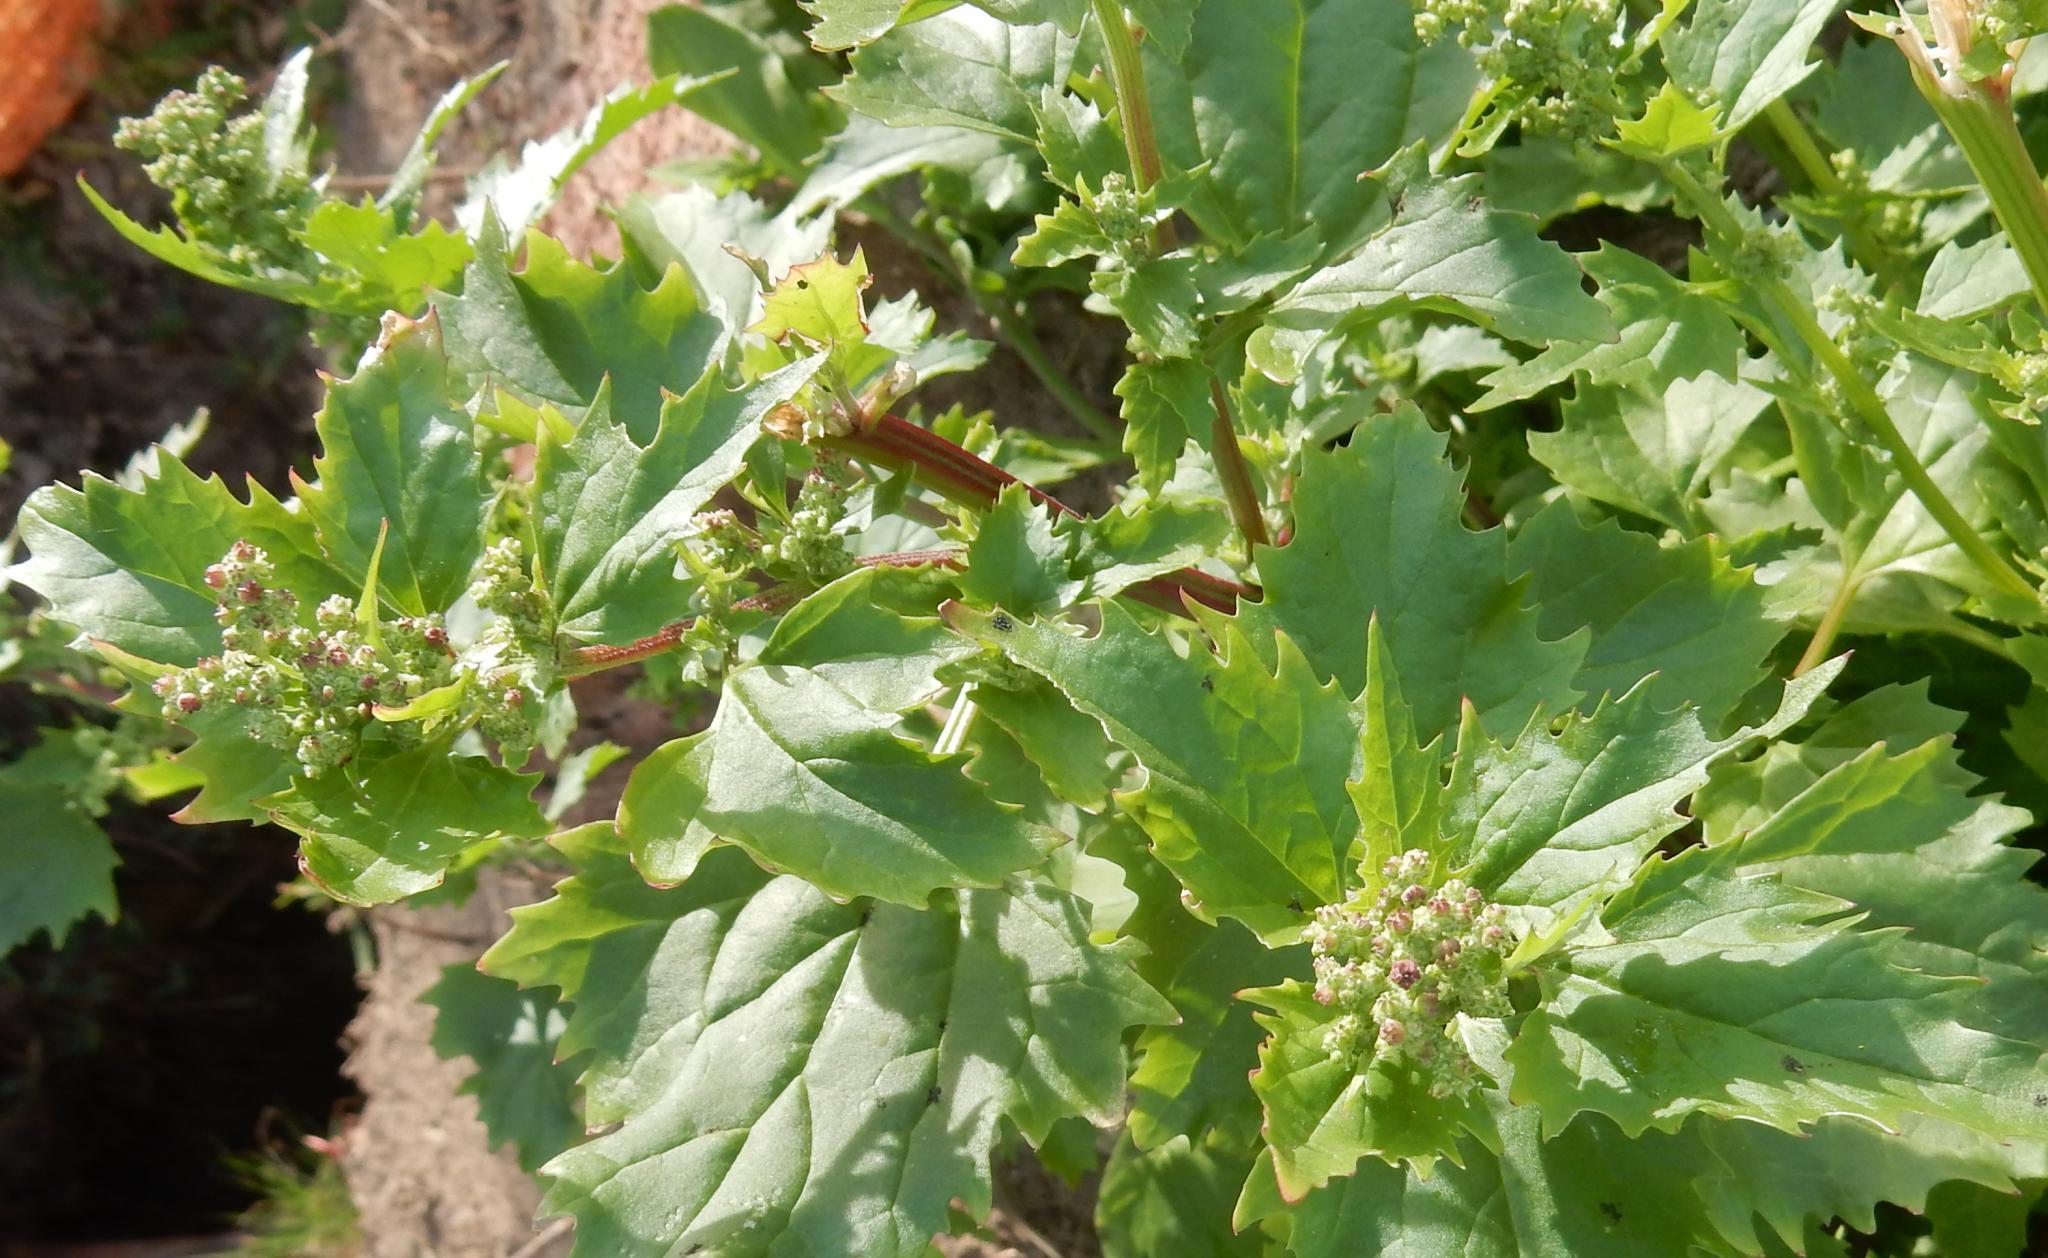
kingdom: Plantae
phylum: Tracheophyta
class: Magnoliopsida
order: Caryophyllales
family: Amaranthaceae
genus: Chenopodiastrum
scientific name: Chenopodiastrum murale
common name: Sowbane
